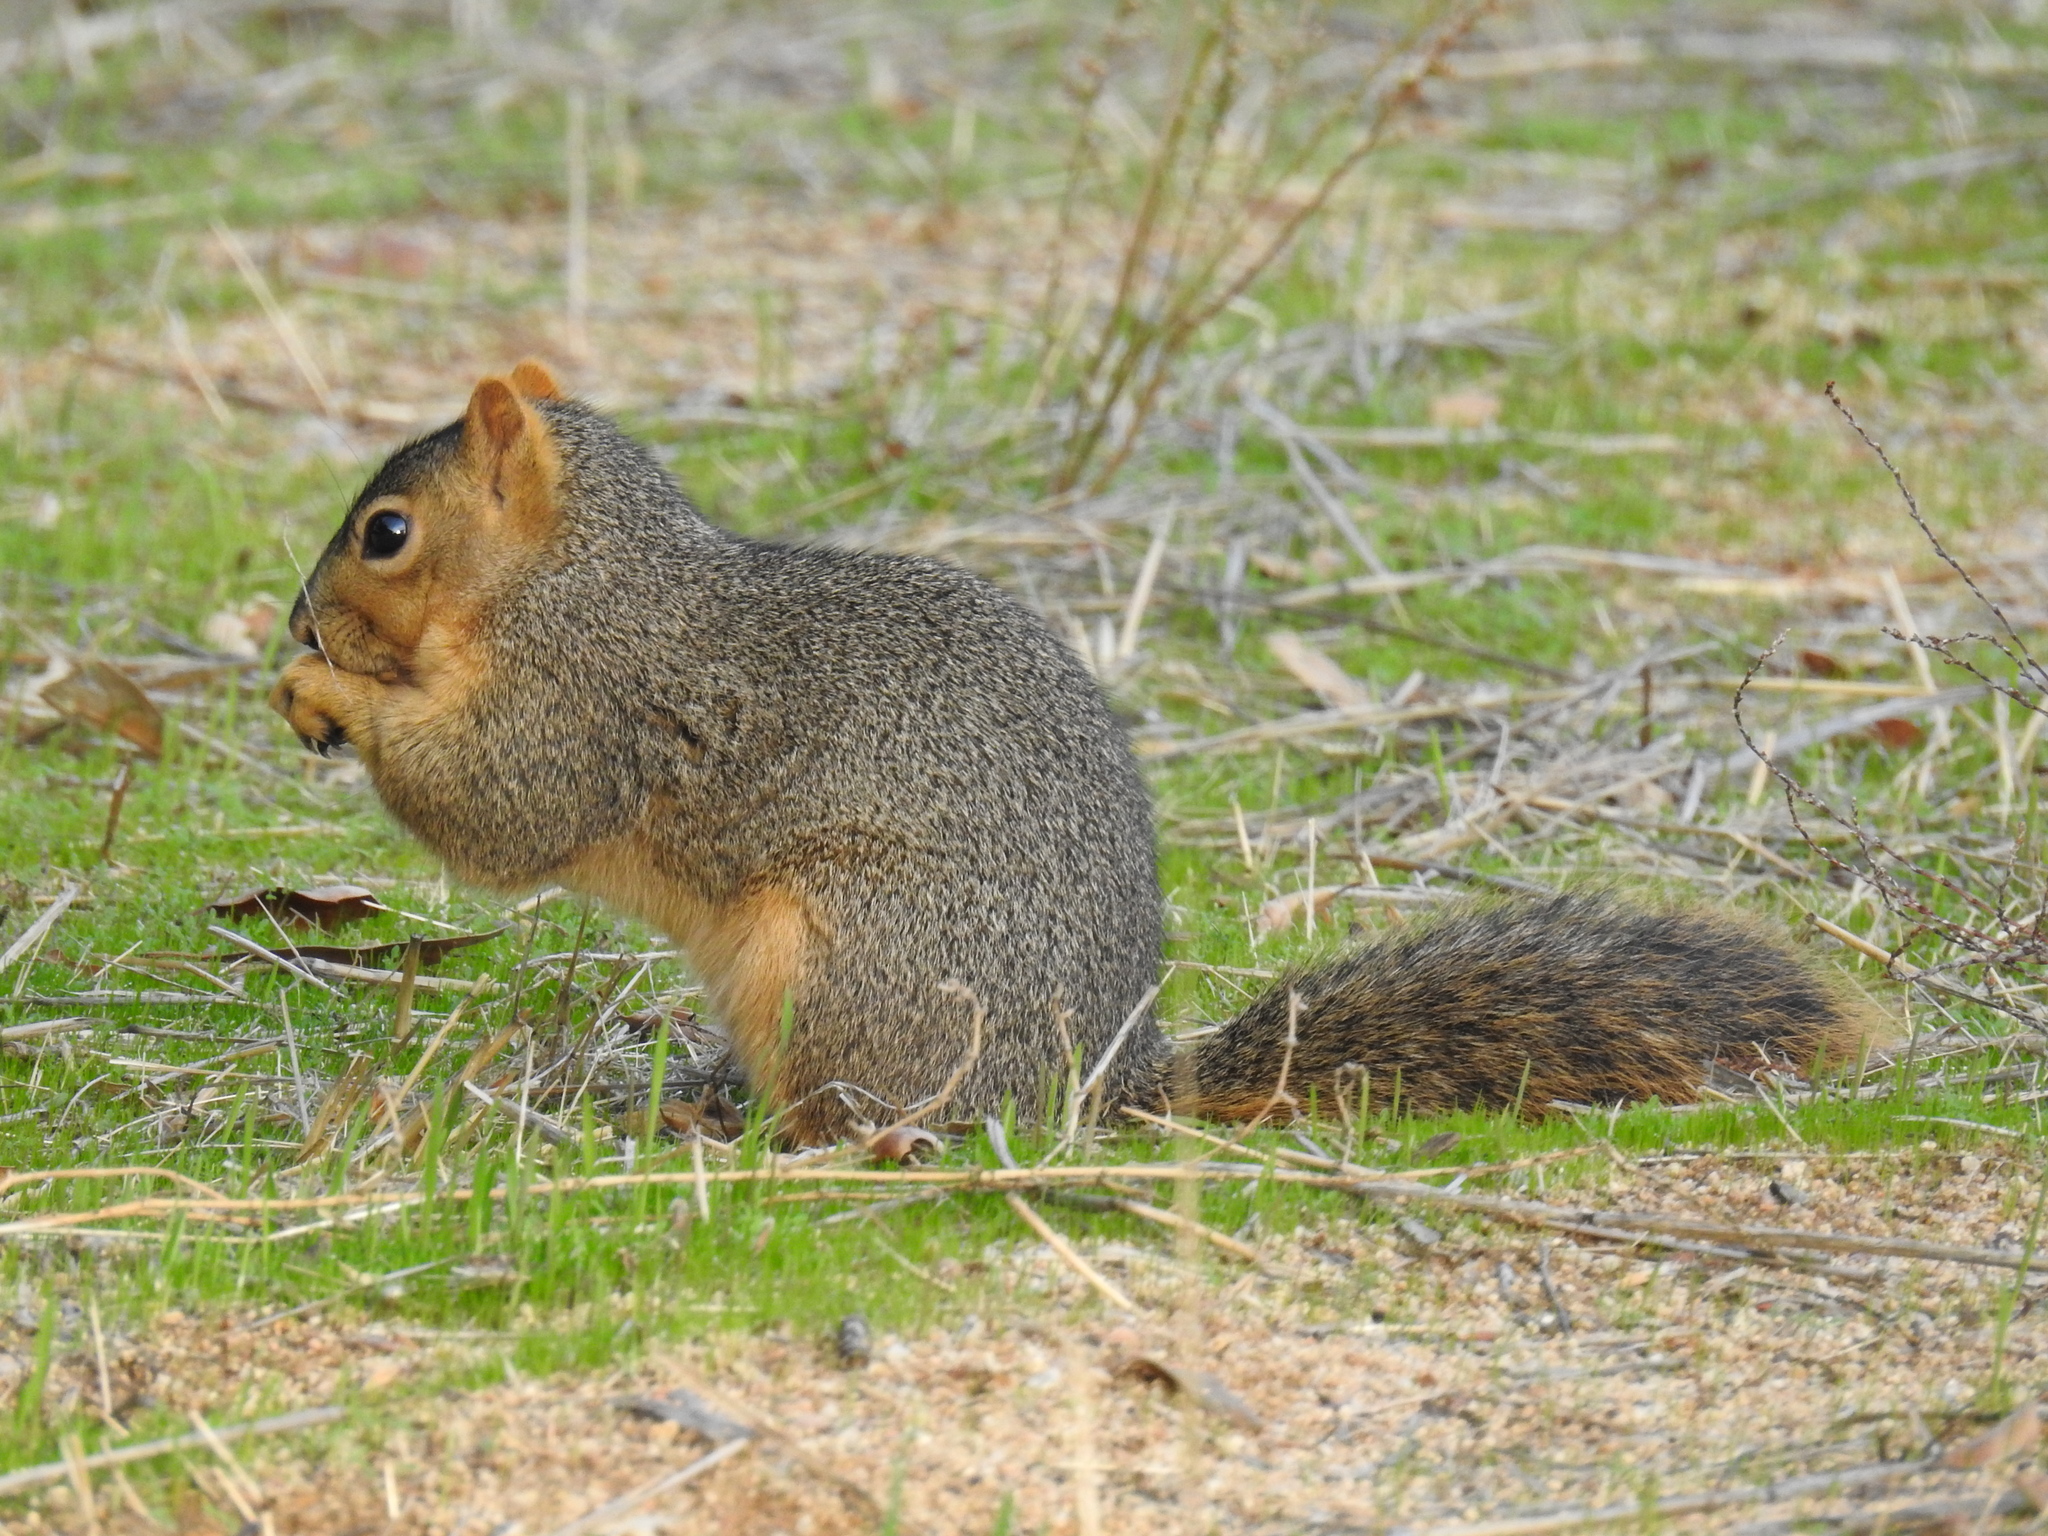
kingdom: Animalia
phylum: Chordata
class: Mammalia
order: Rodentia
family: Sciuridae
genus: Sciurus
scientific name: Sciurus niger
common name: Fox squirrel
